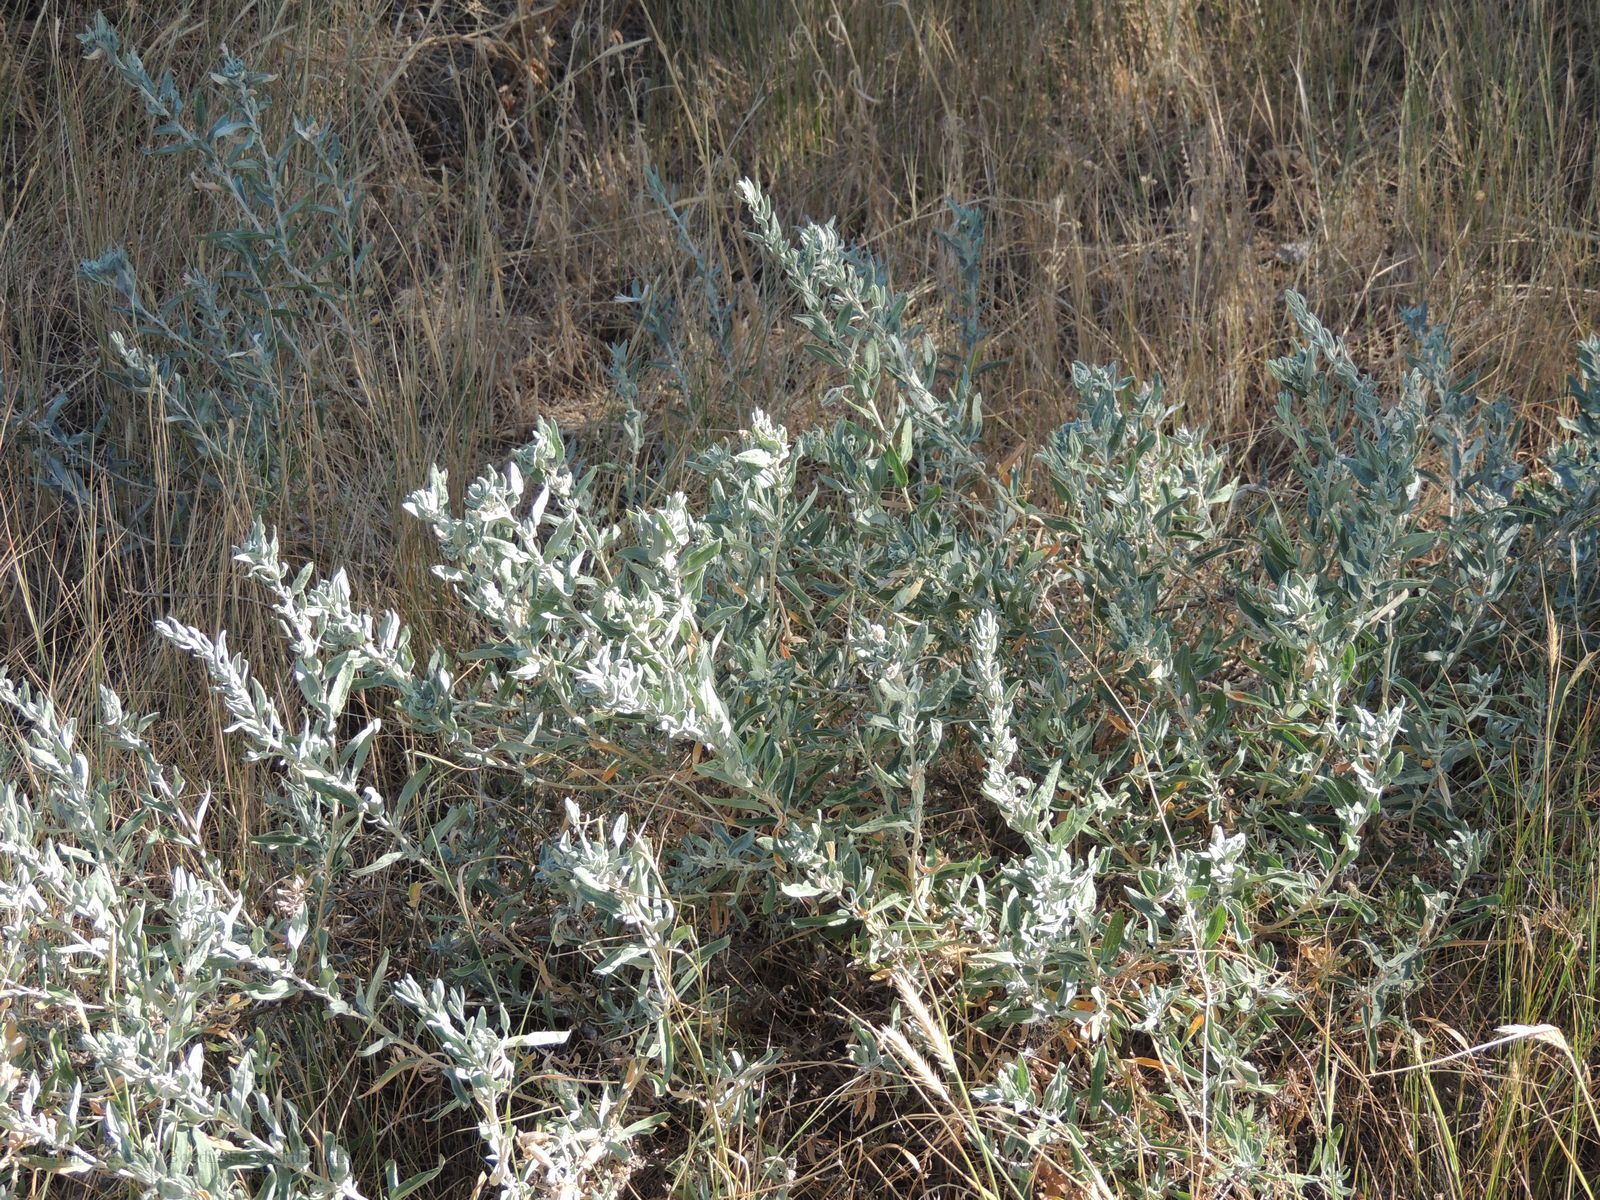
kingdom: Plantae
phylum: Tracheophyta
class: Magnoliopsida
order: Caryophyllales
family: Amaranthaceae
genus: Krascheninnikovia
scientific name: Krascheninnikovia ceratoides
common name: Pamirian winterfat
